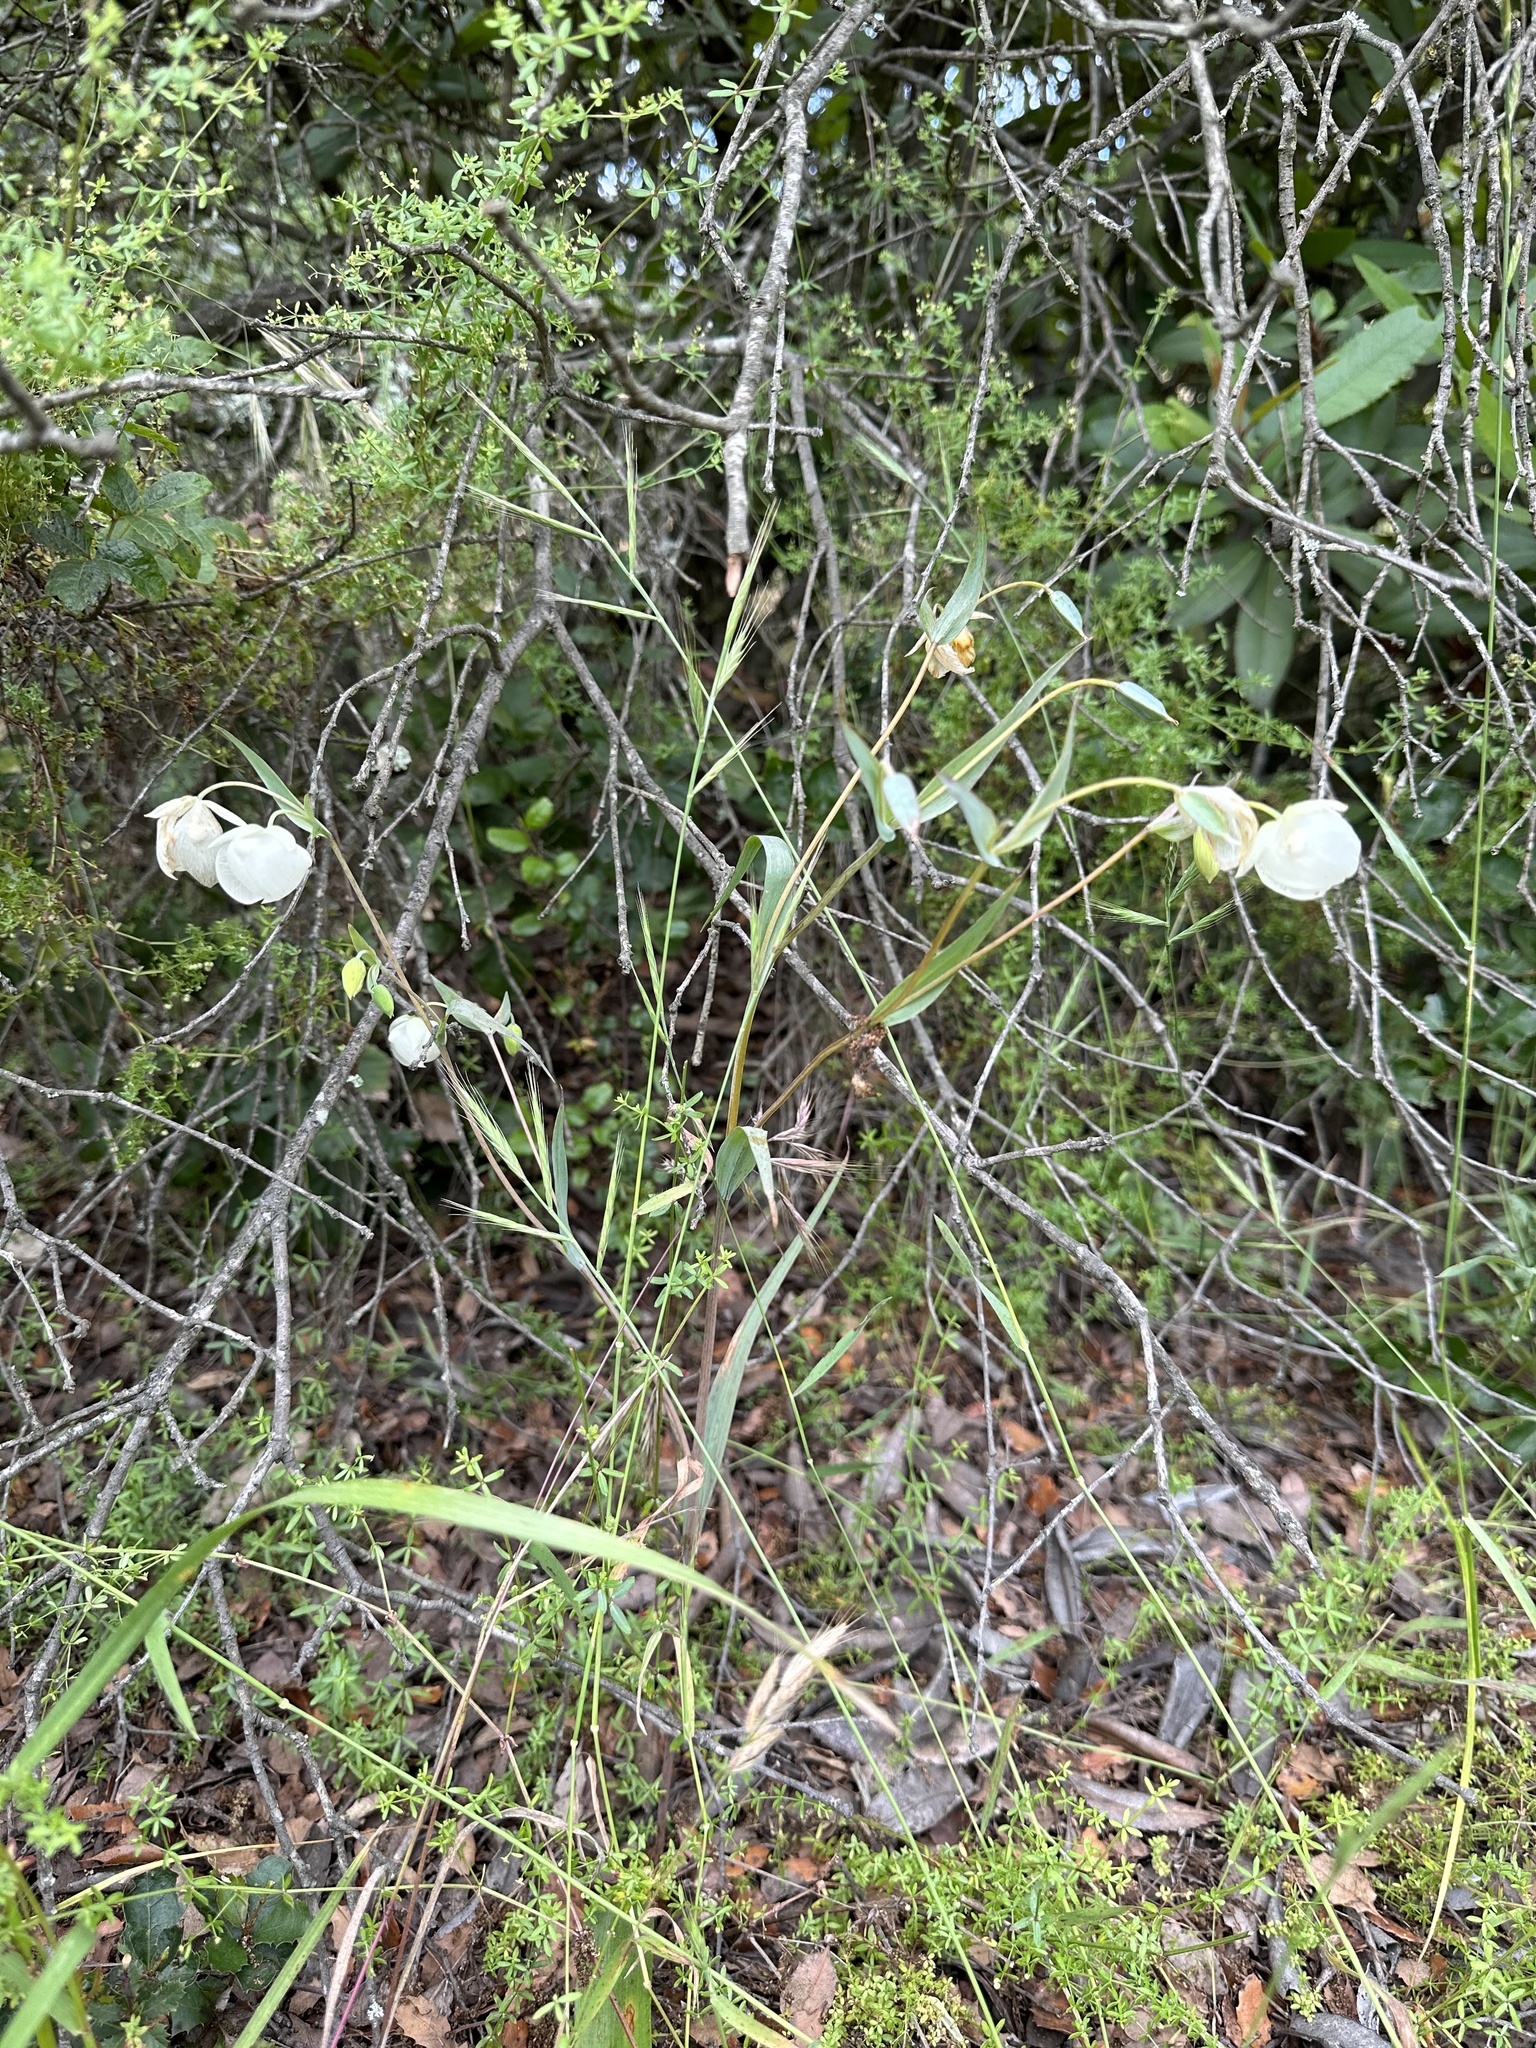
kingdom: Plantae
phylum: Tracheophyta
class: Liliopsida
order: Liliales
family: Liliaceae
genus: Calochortus
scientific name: Calochortus albus
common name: Fairy-lantern
